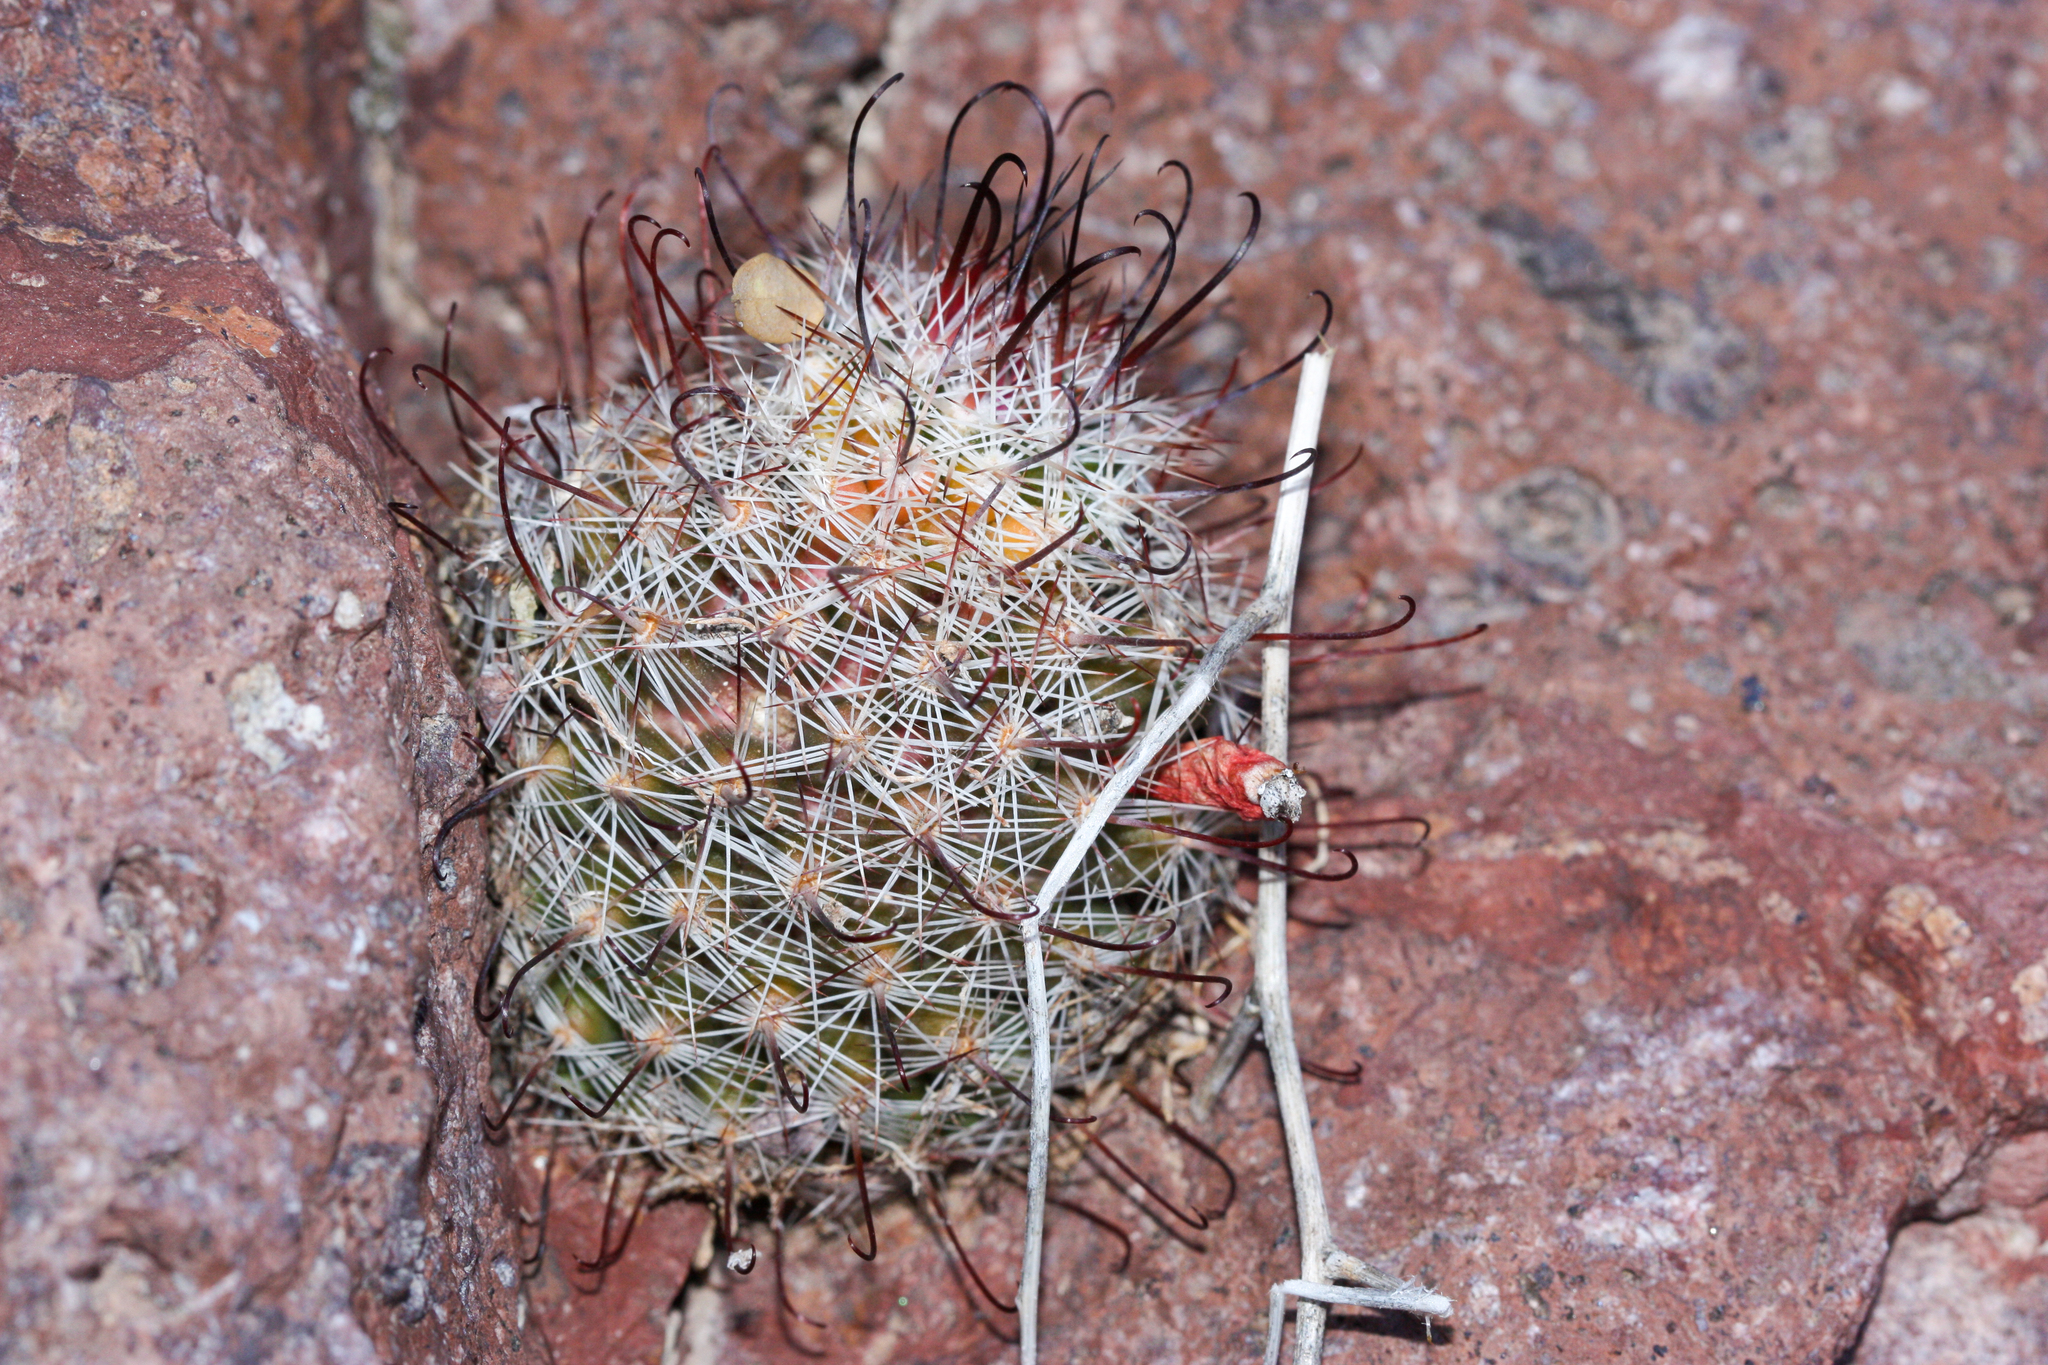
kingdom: Plantae
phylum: Tracheophyta
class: Magnoliopsida
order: Caryophyllales
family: Cactaceae
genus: Cochemiea
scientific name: Cochemiea grahamii
